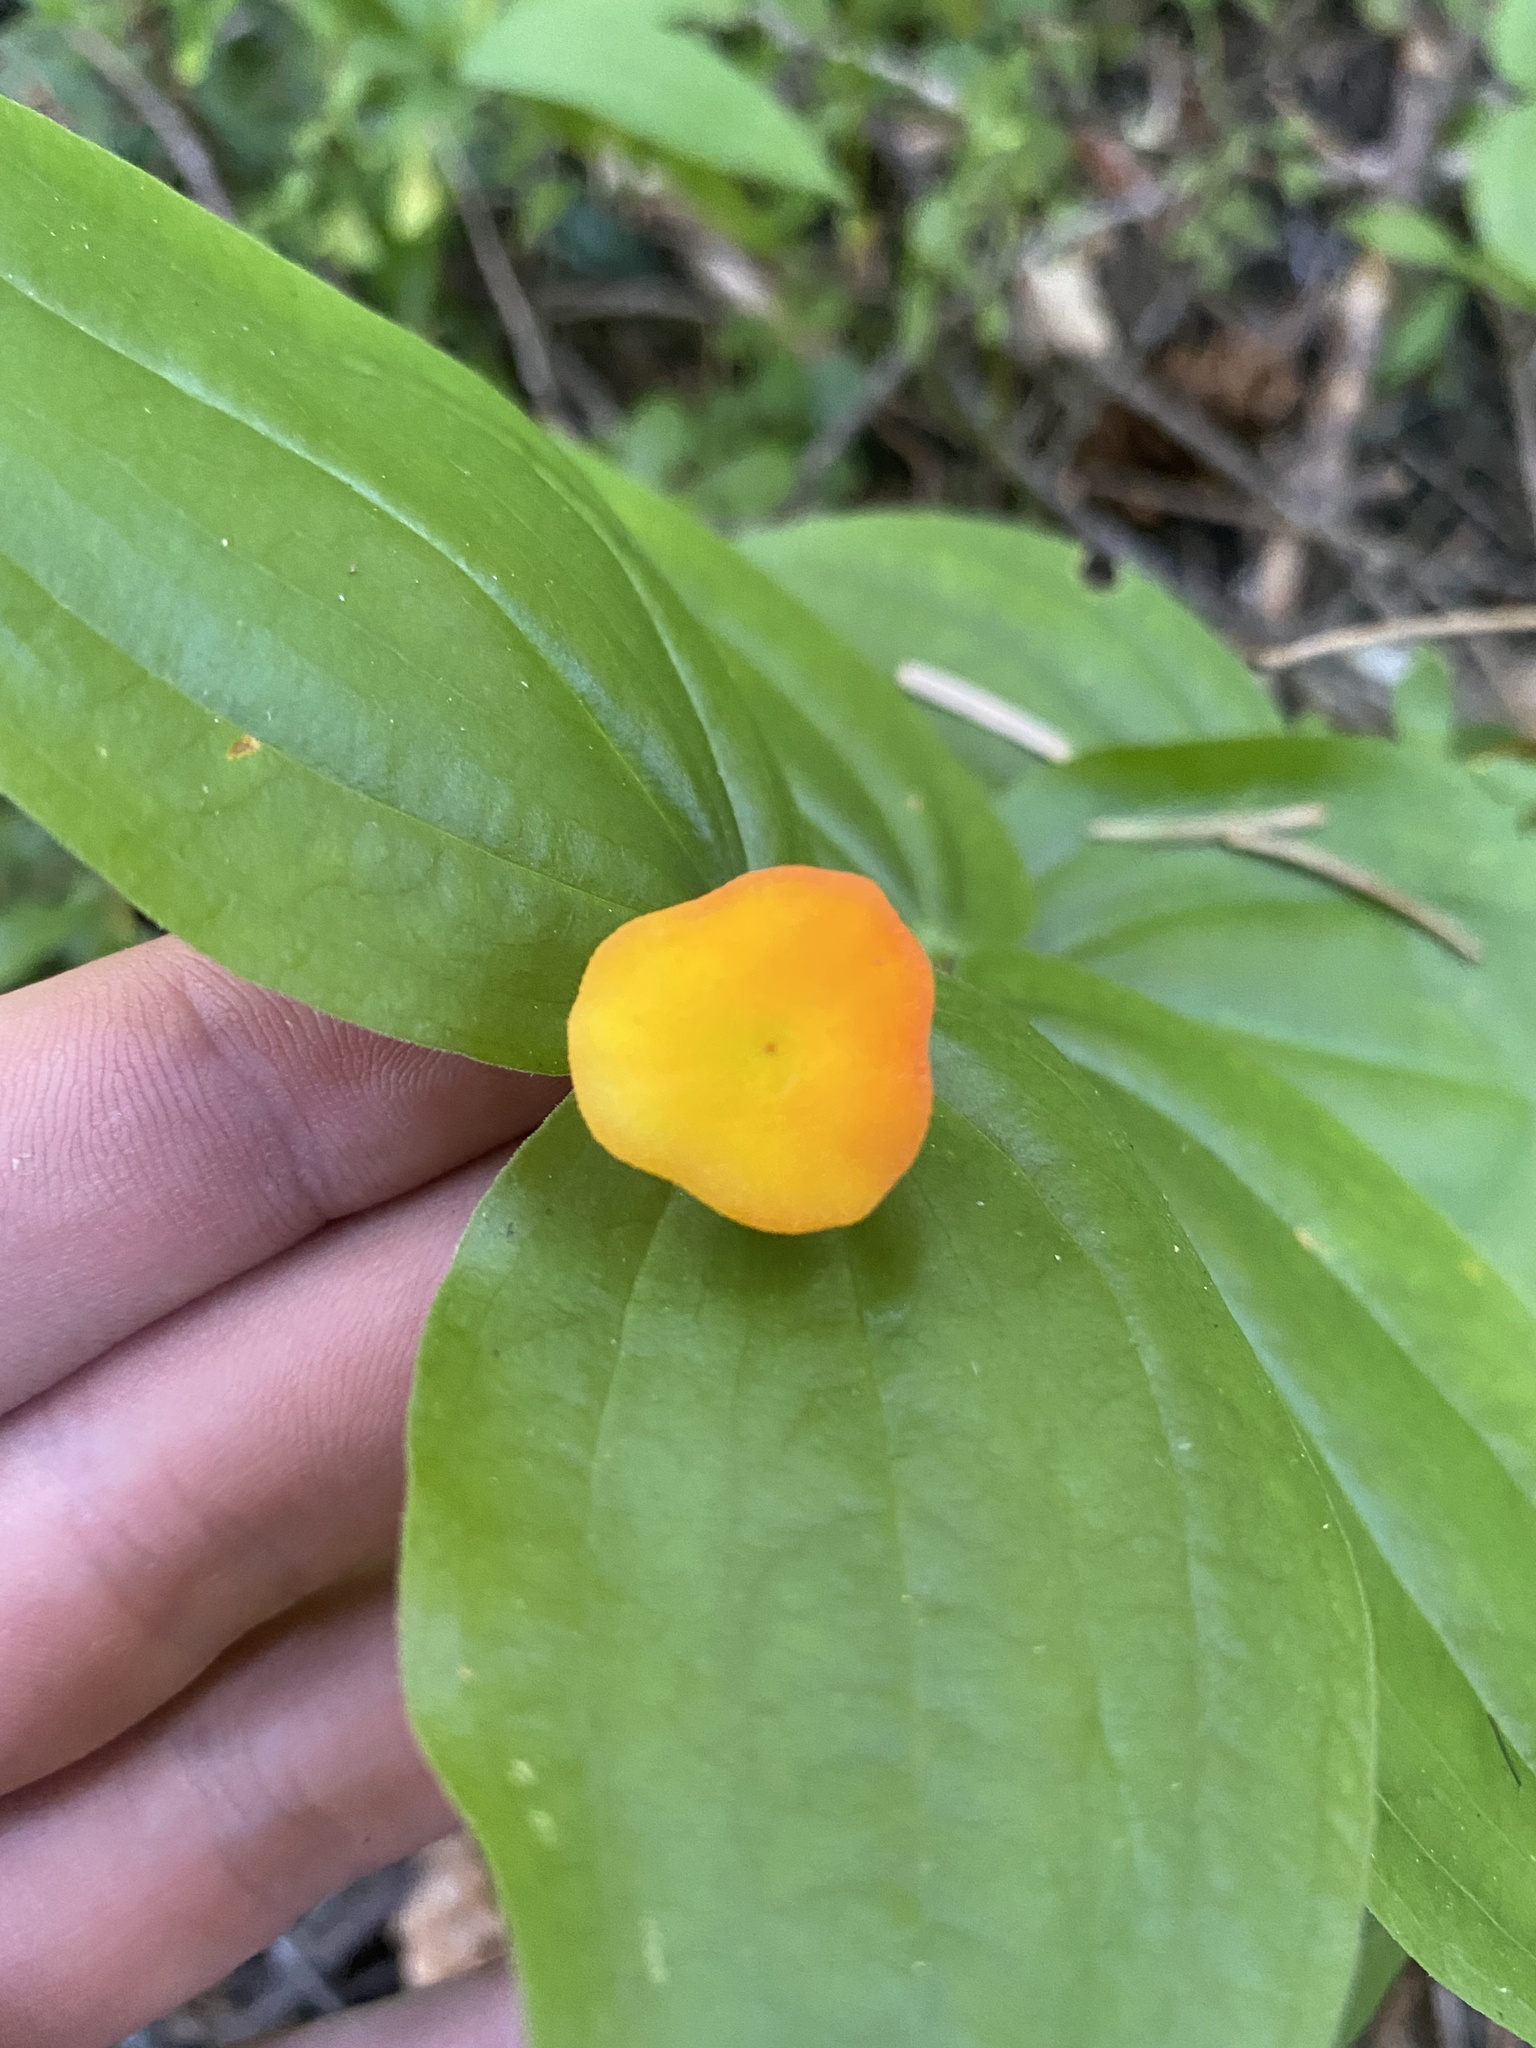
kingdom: Plantae
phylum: Tracheophyta
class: Liliopsida
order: Liliales
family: Liliaceae
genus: Prosartes
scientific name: Prosartes trachycarpa
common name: Rough-fruit fairy-bells
